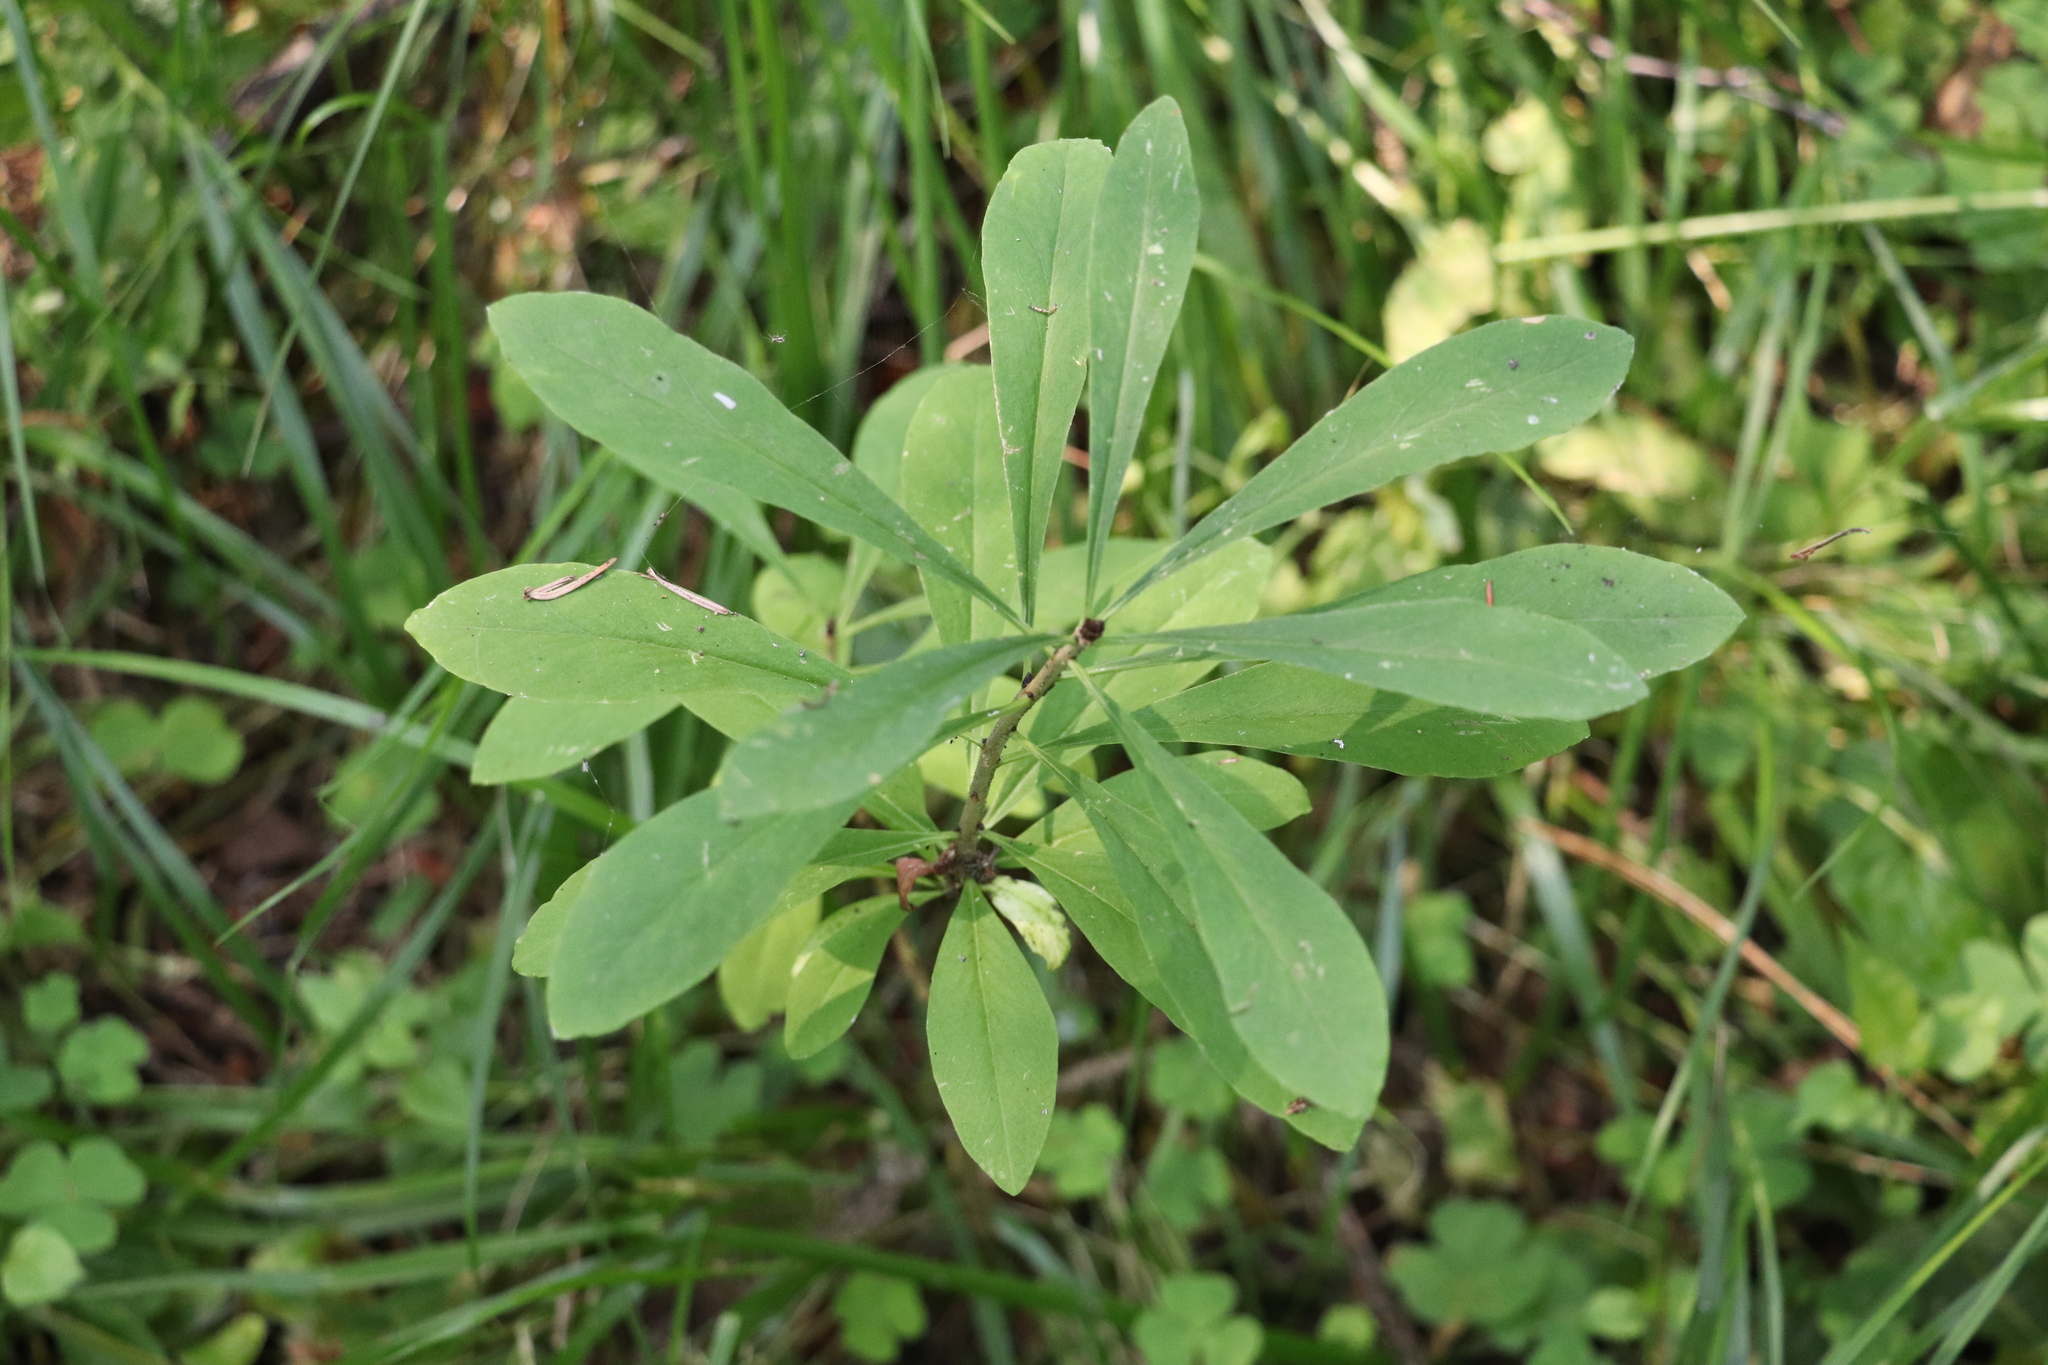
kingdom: Plantae
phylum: Tracheophyta
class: Magnoliopsida
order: Malvales
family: Thymelaeaceae
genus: Daphne
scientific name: Daphne mezereum
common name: Mezereon
